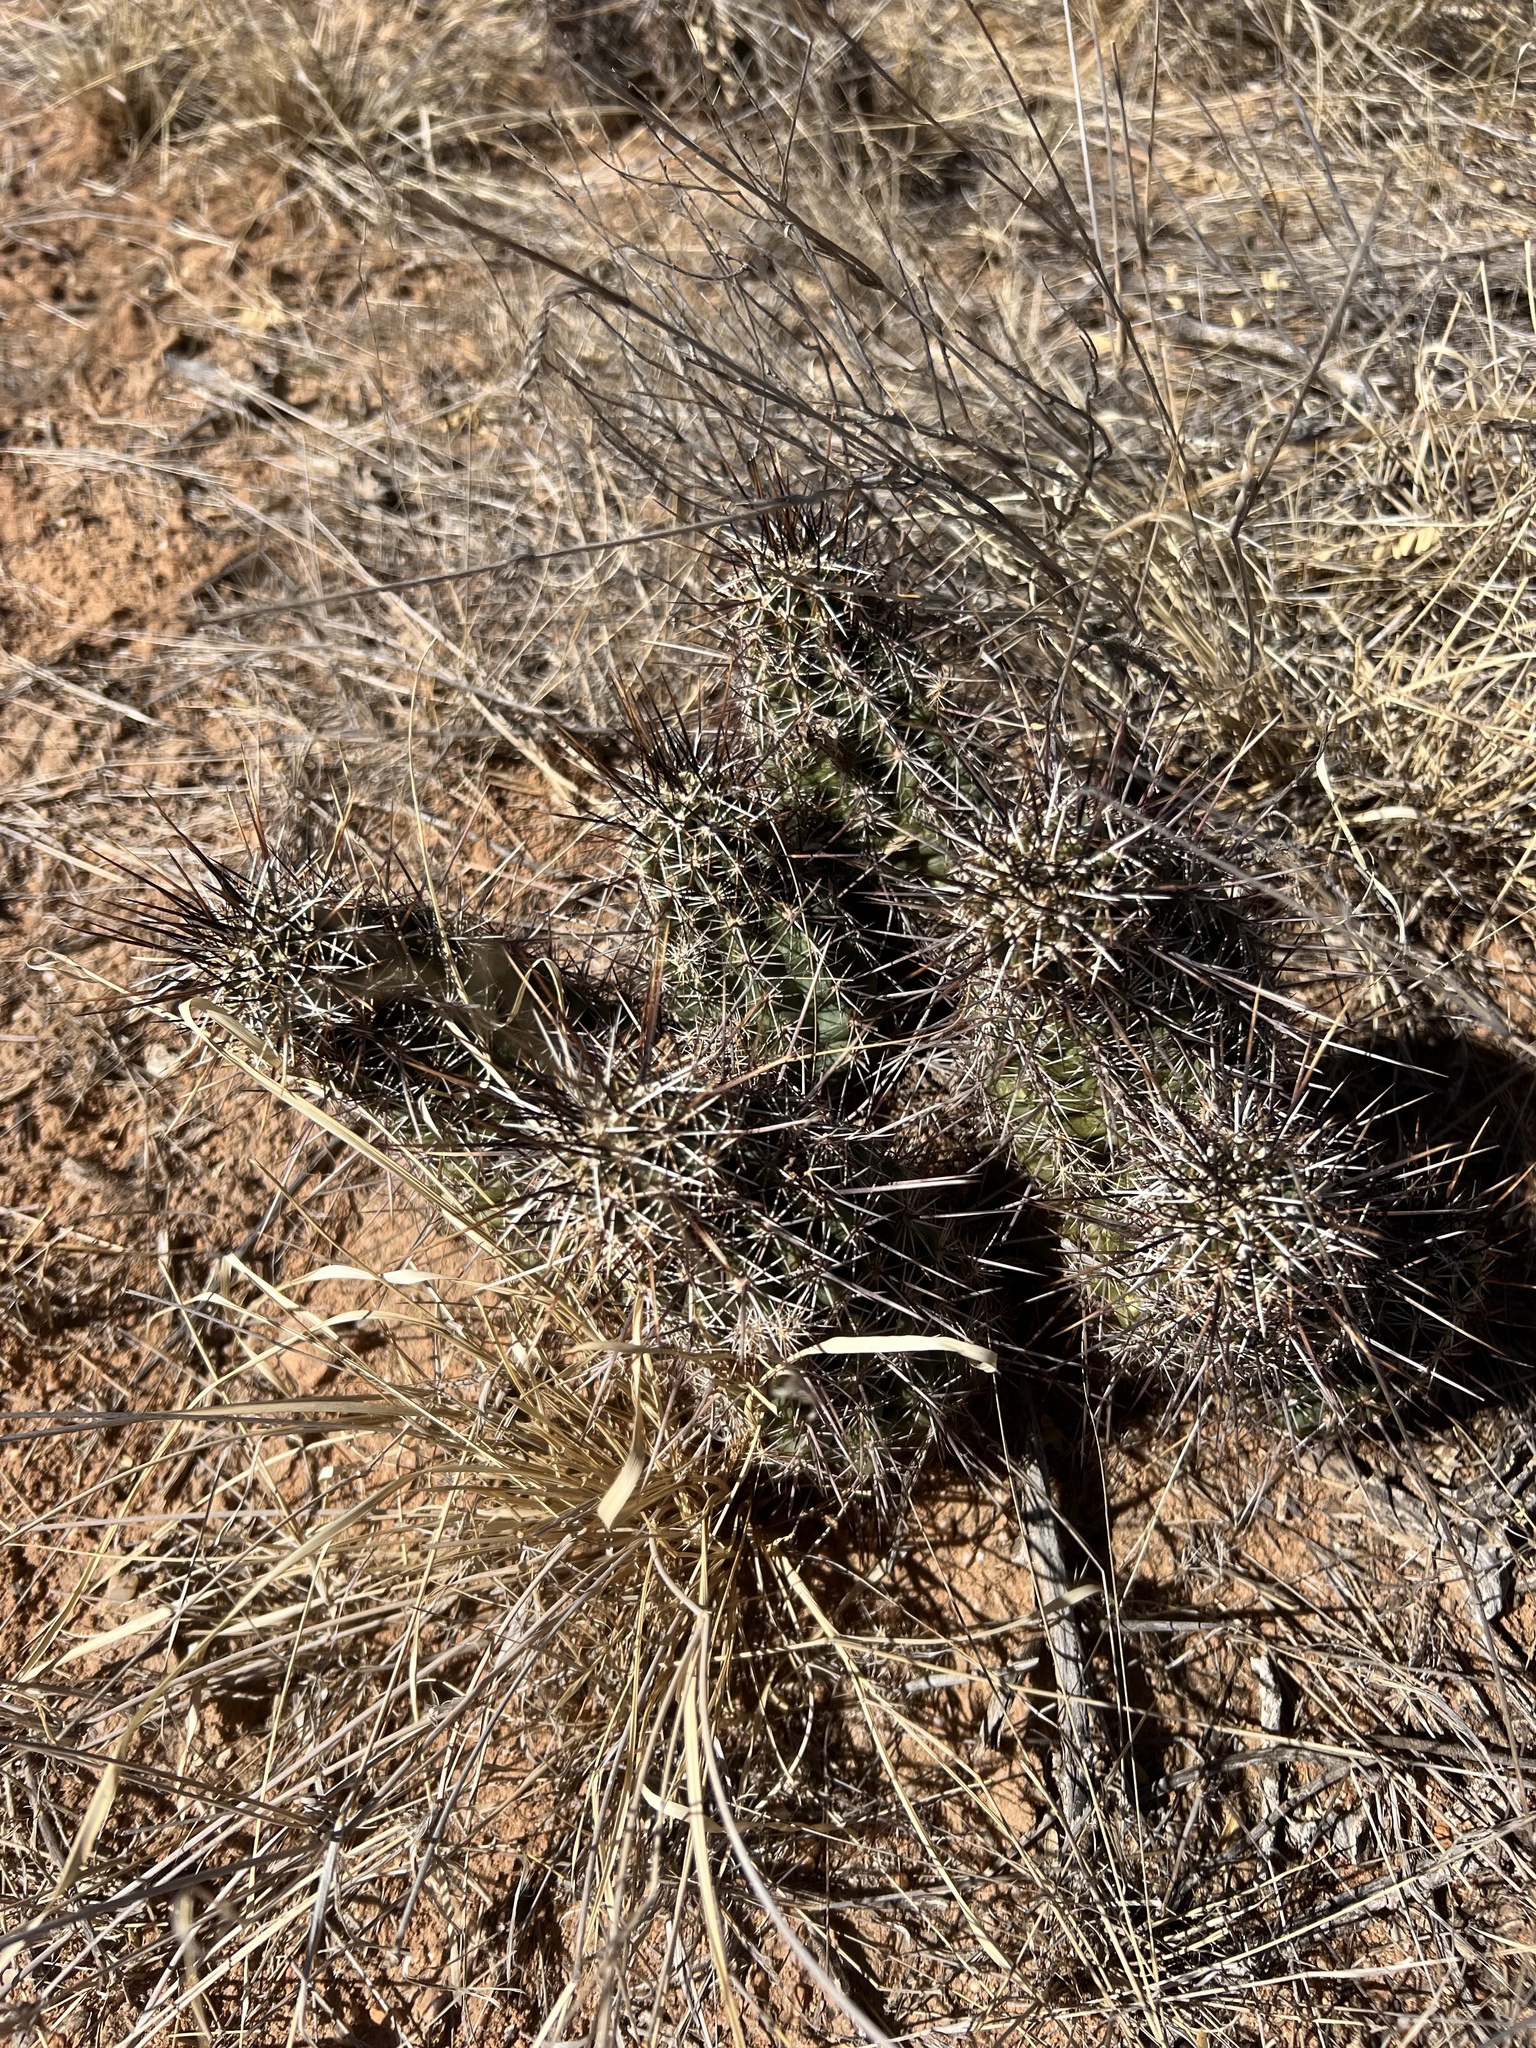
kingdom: Plantae
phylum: Tracheophyta
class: Magnoliopsida
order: Caryophyllales
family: Cactaceae
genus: Echinocereus
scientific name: Echinocereus fasciculatus
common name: Bundle hedgehog
